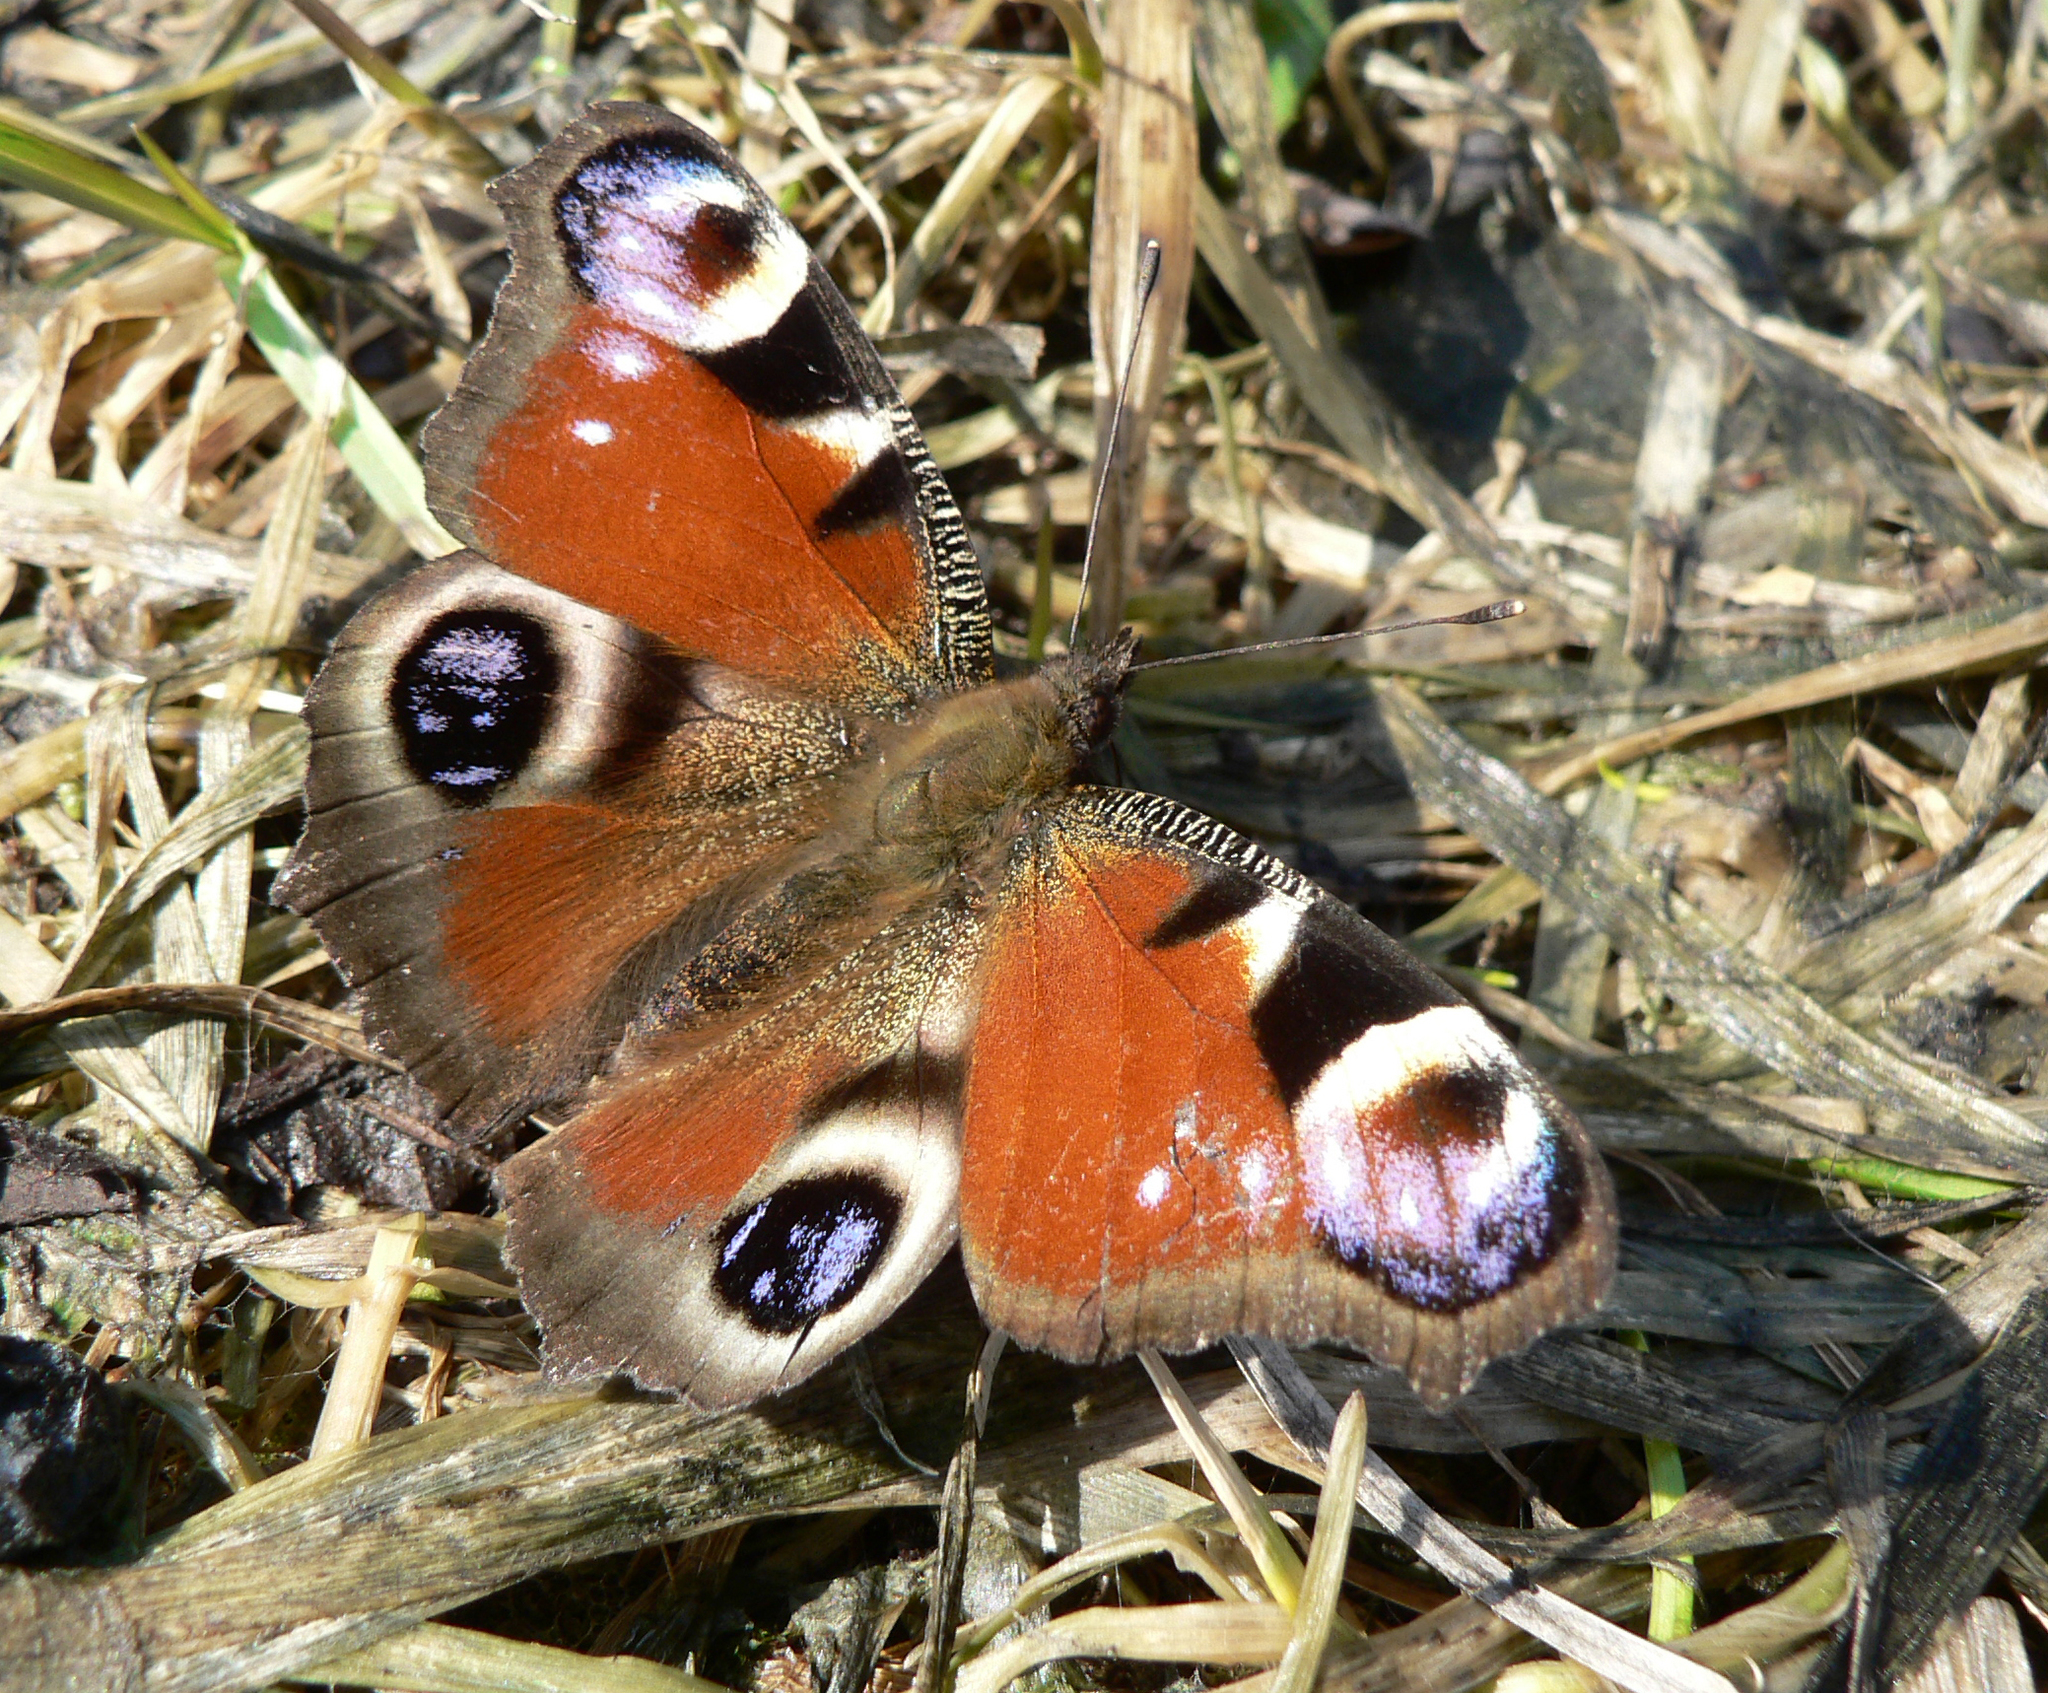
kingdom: Animalia
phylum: Arthropoda
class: Insecta
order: Lepidoptera
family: Nymphalidae
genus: Aglais
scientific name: Aglais io
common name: Peacock
